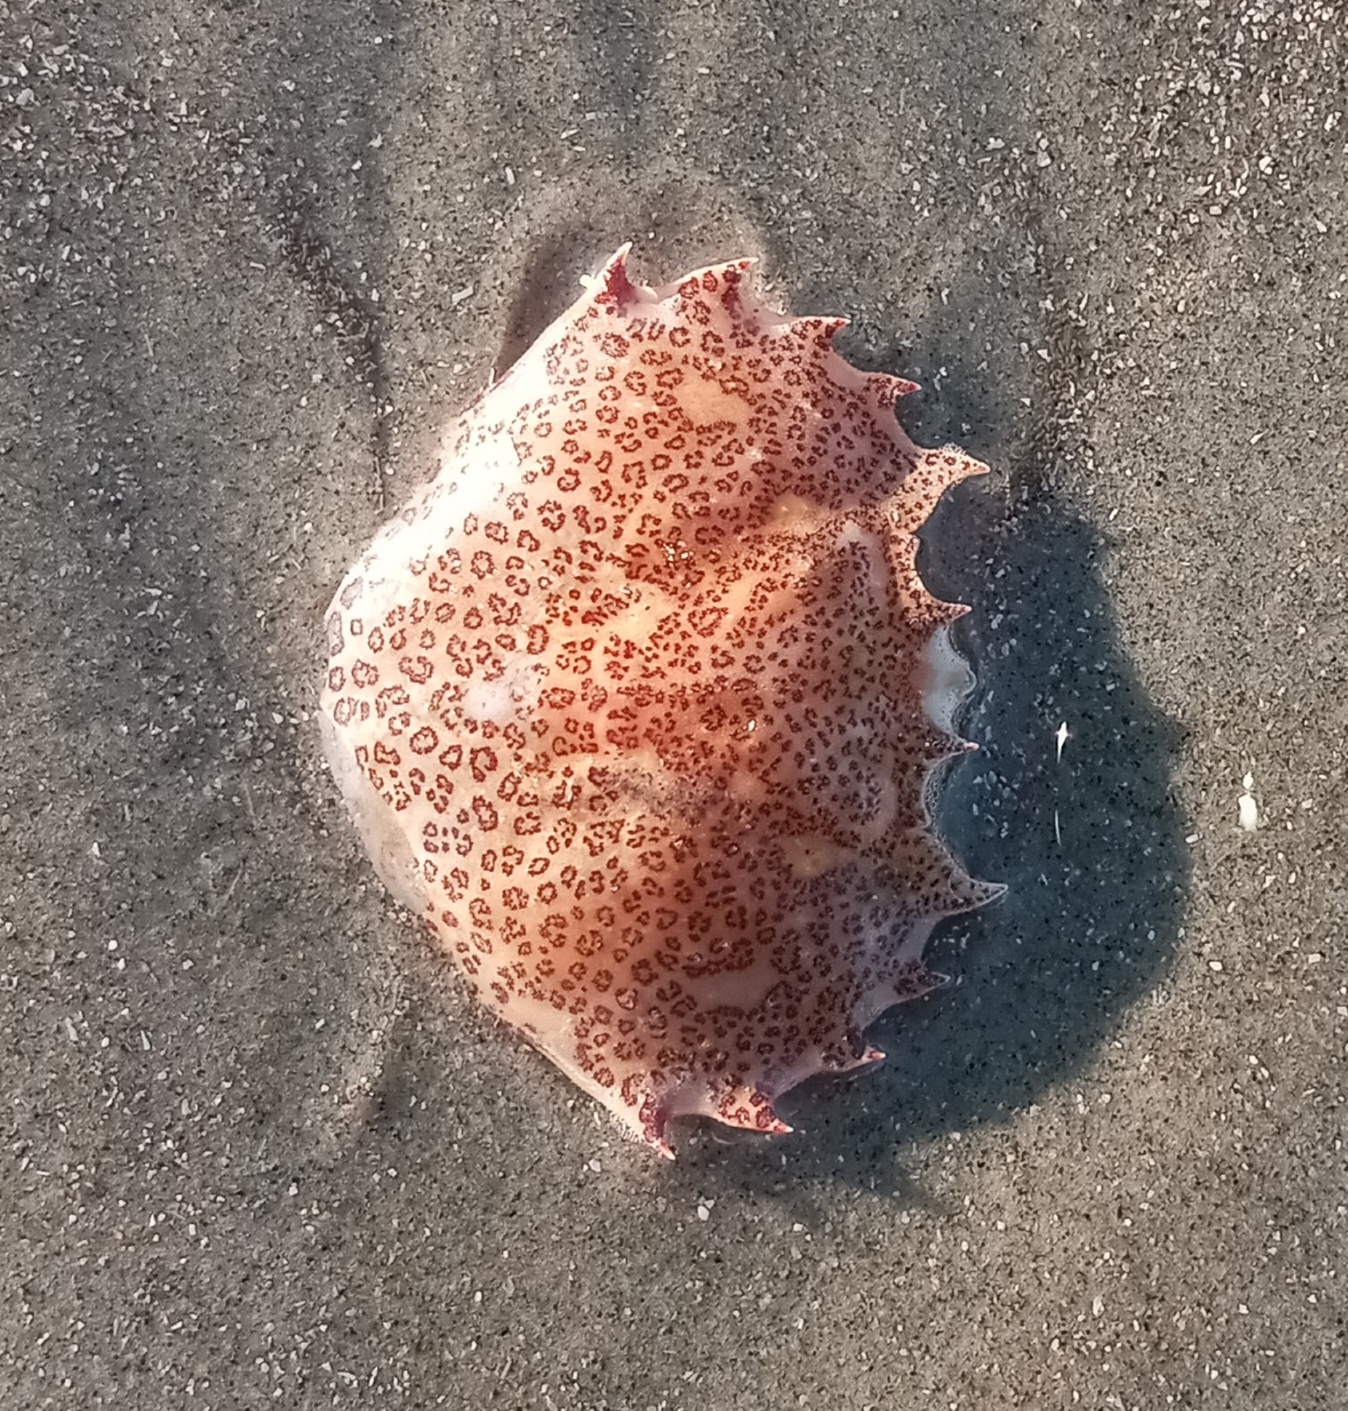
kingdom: Animalia
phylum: Arthropoda
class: Malacostraca
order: Decapoda
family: Ovalipidae
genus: Ovalipes
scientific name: Ovalipes ocellatus
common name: Lady crab
